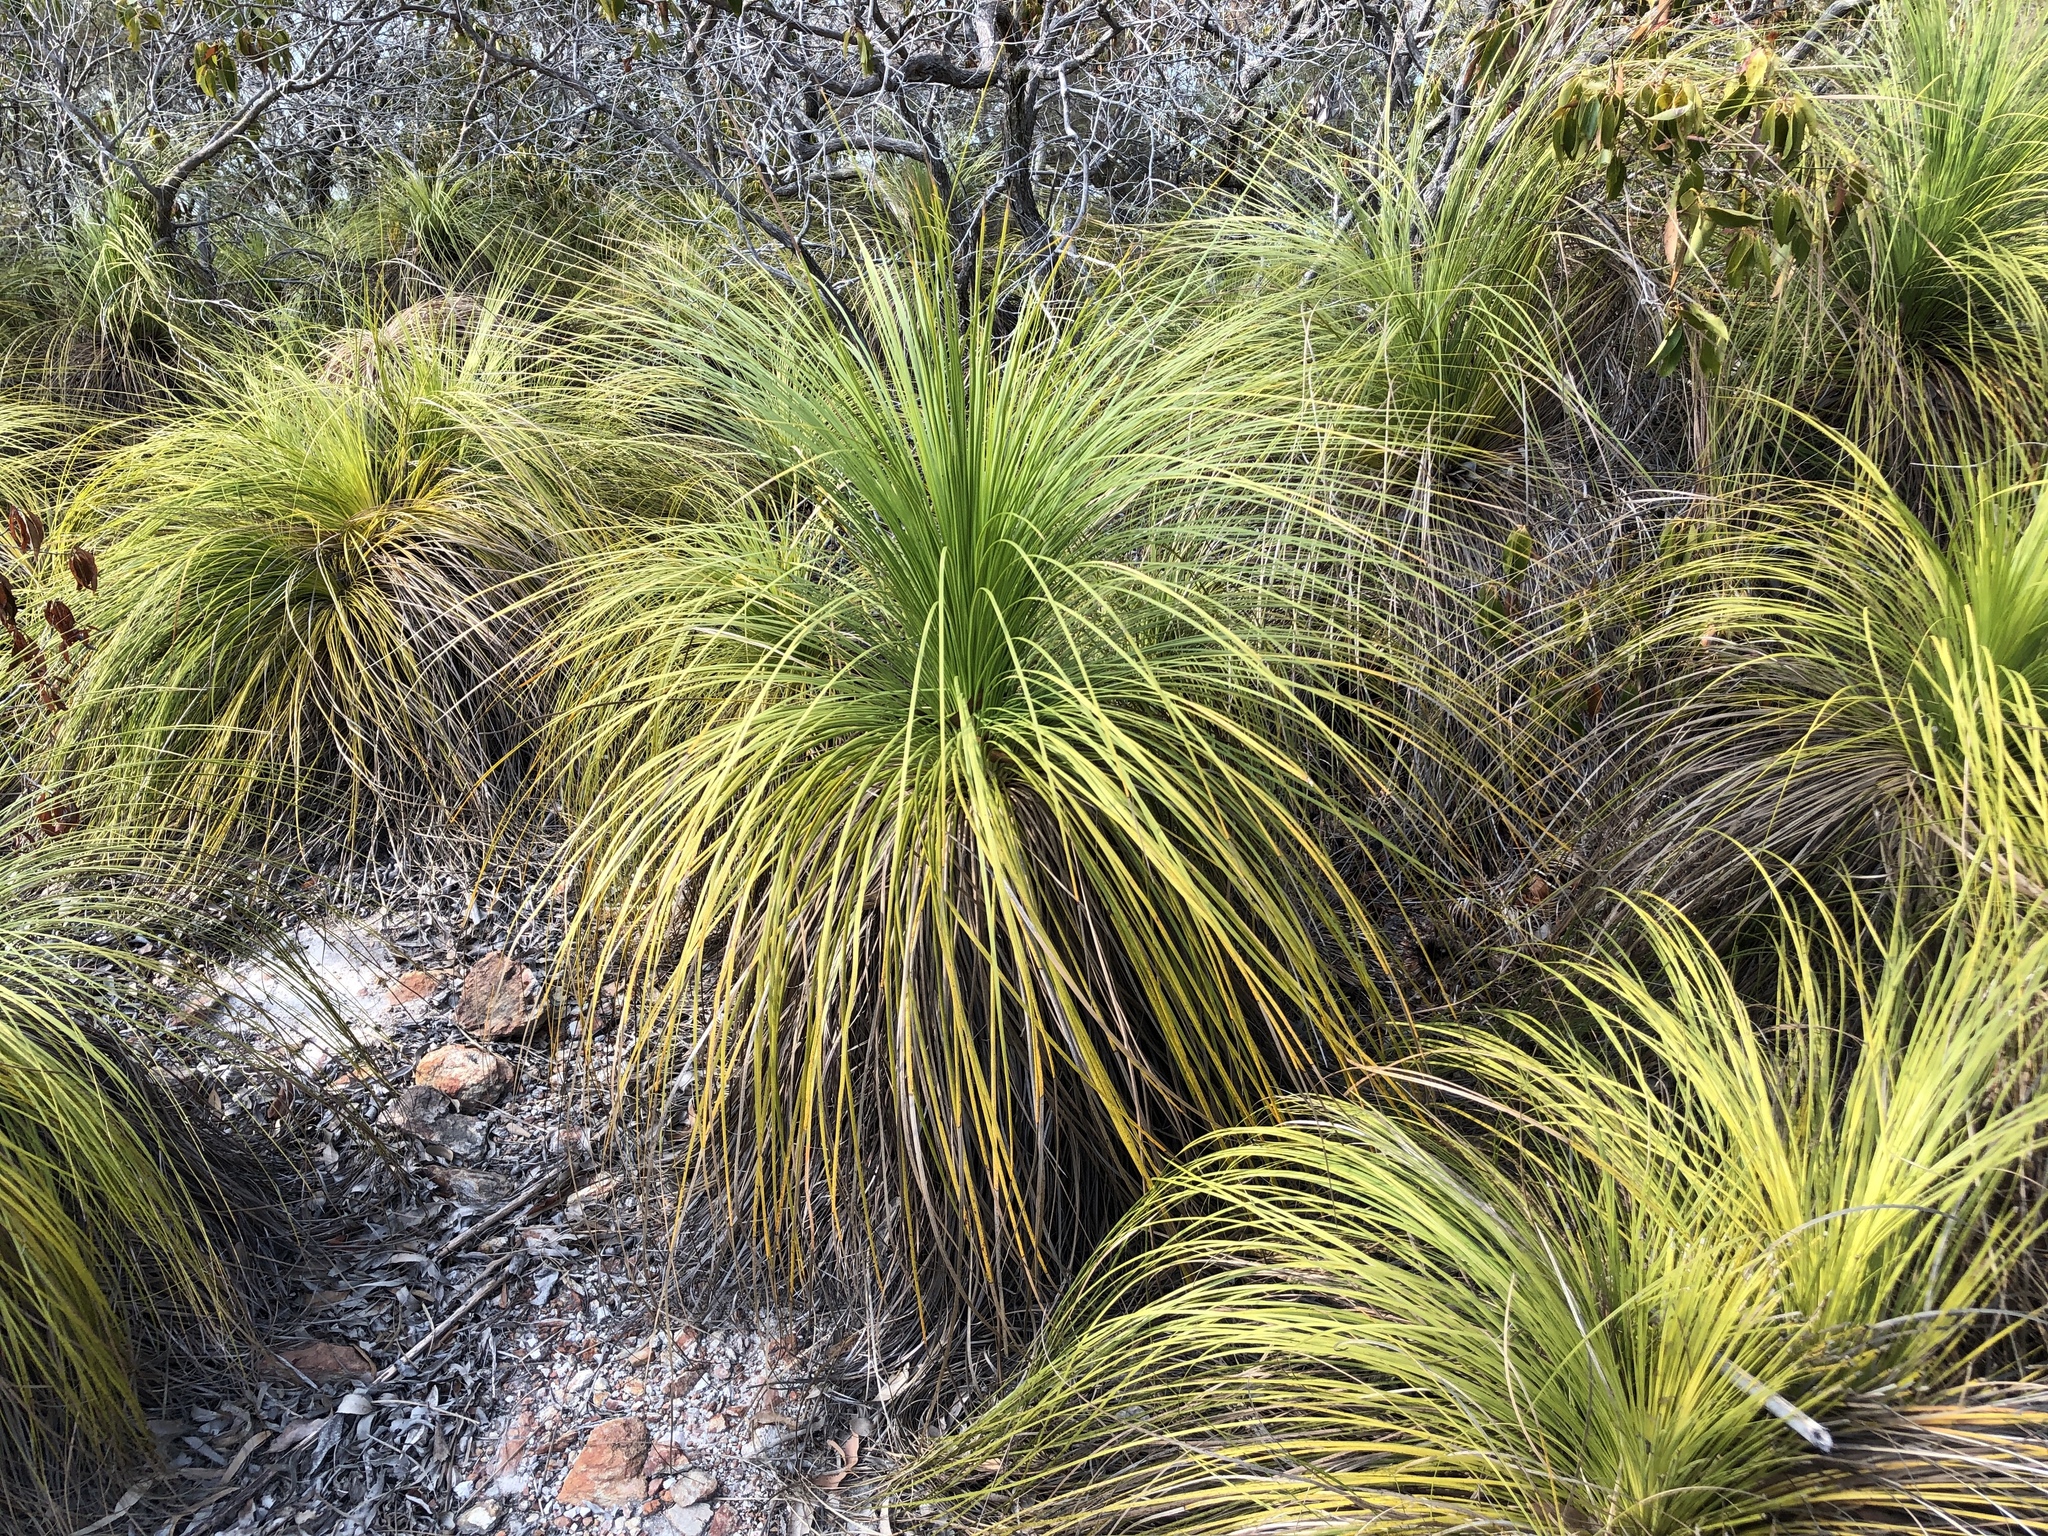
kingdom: Plantae
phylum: Tracheophyta
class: Liliopsida
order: Asparagales
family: Asphodelaceae
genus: Xanthorrhoea
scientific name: Xanthorrhoea latifolia
